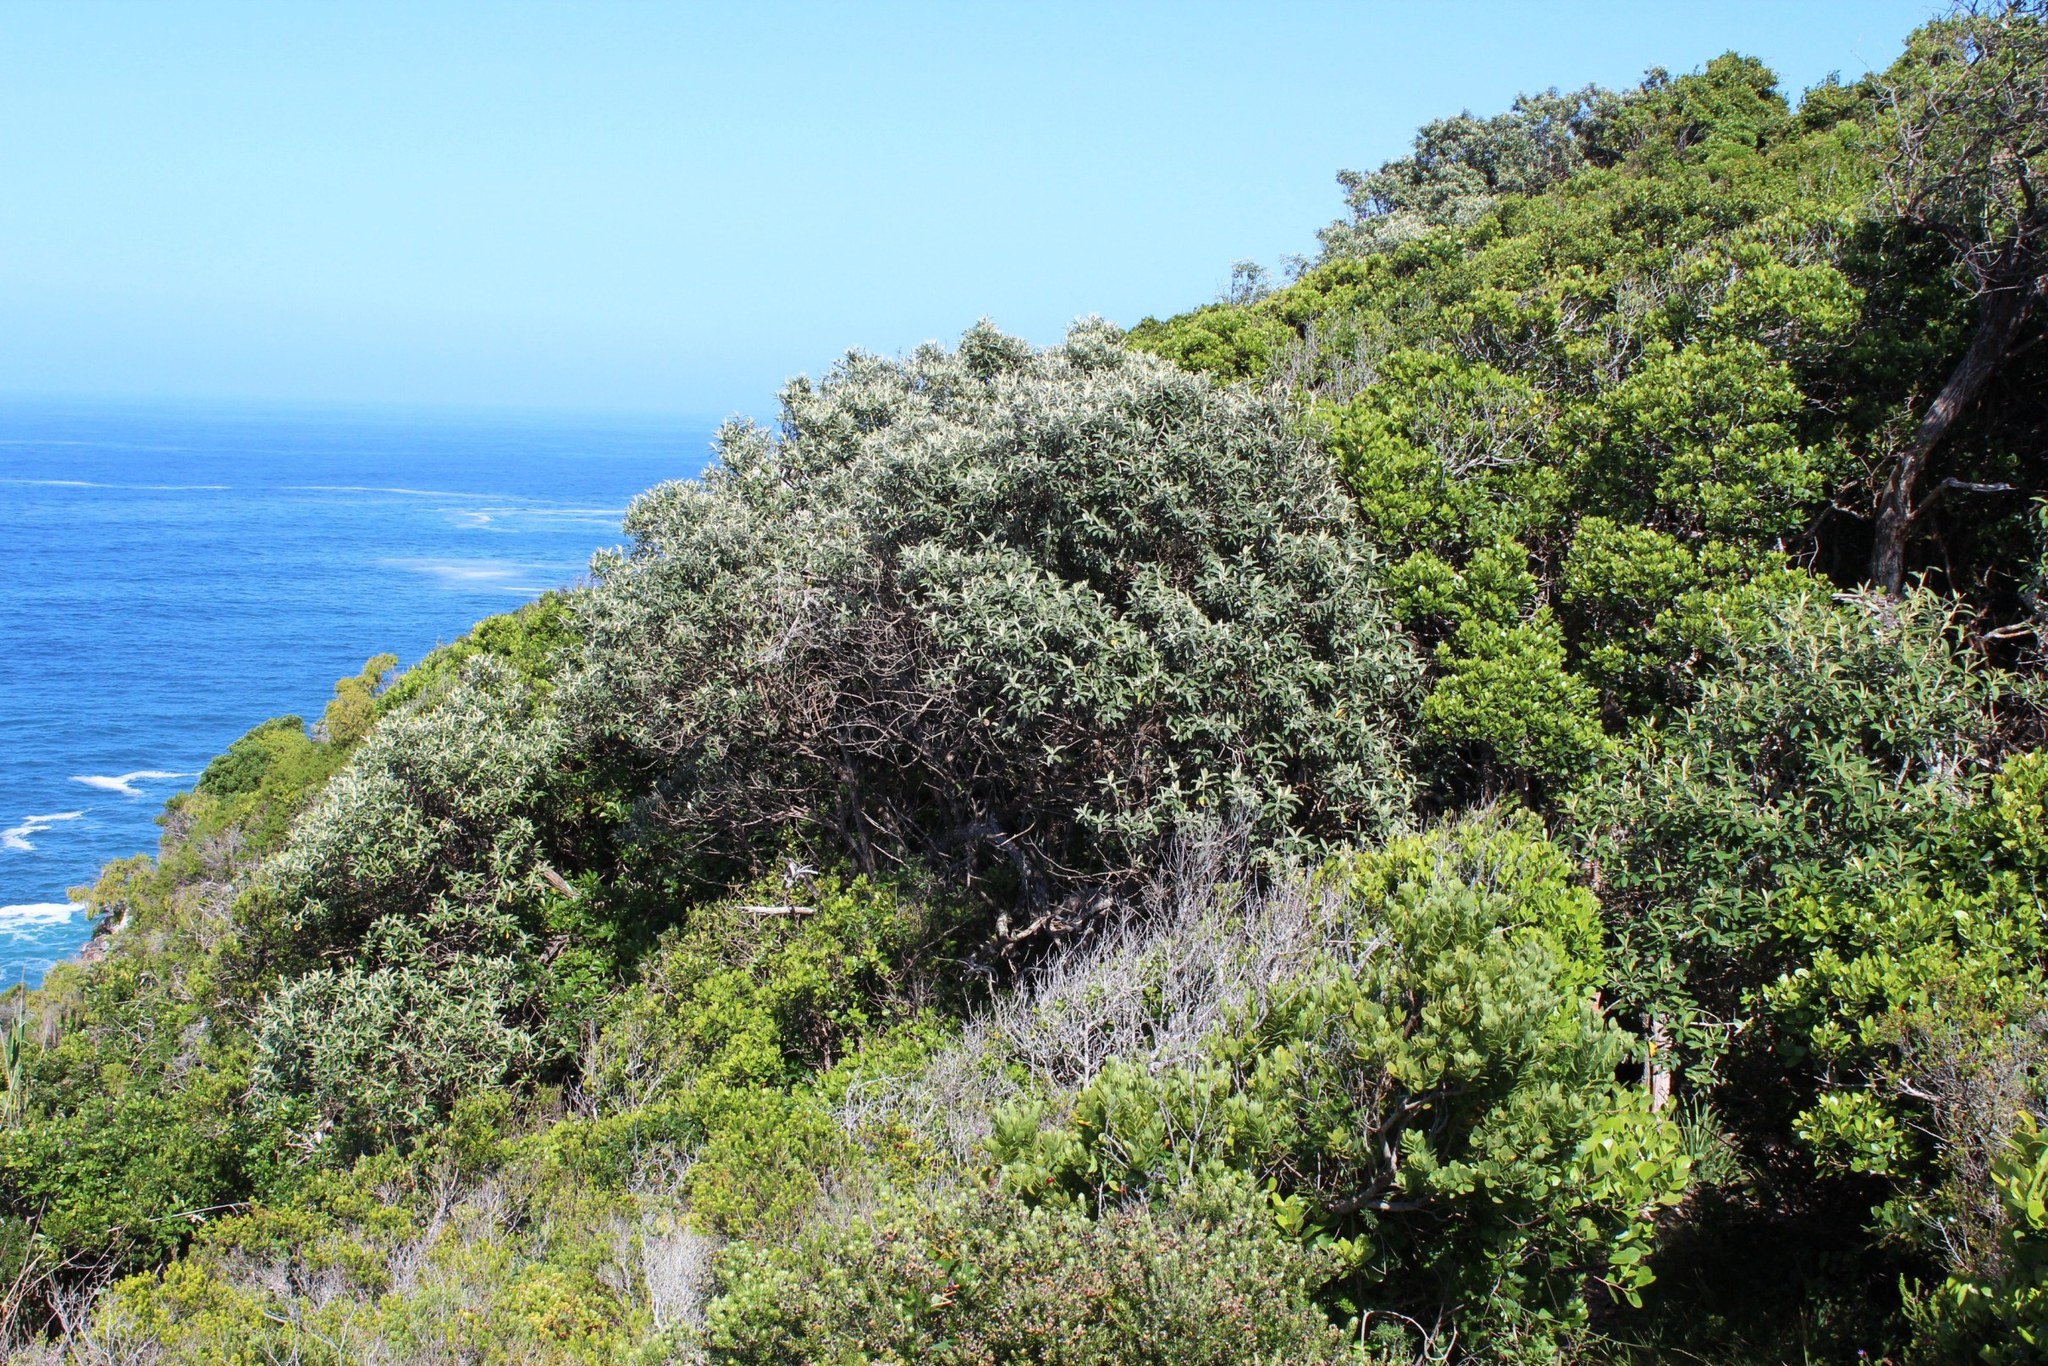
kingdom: Plantae
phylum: Tracheophyta
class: Magnoliopsida
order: Asterales
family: Asteraceae
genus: Tarchonanthus
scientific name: Tarchonanthus littoralis
